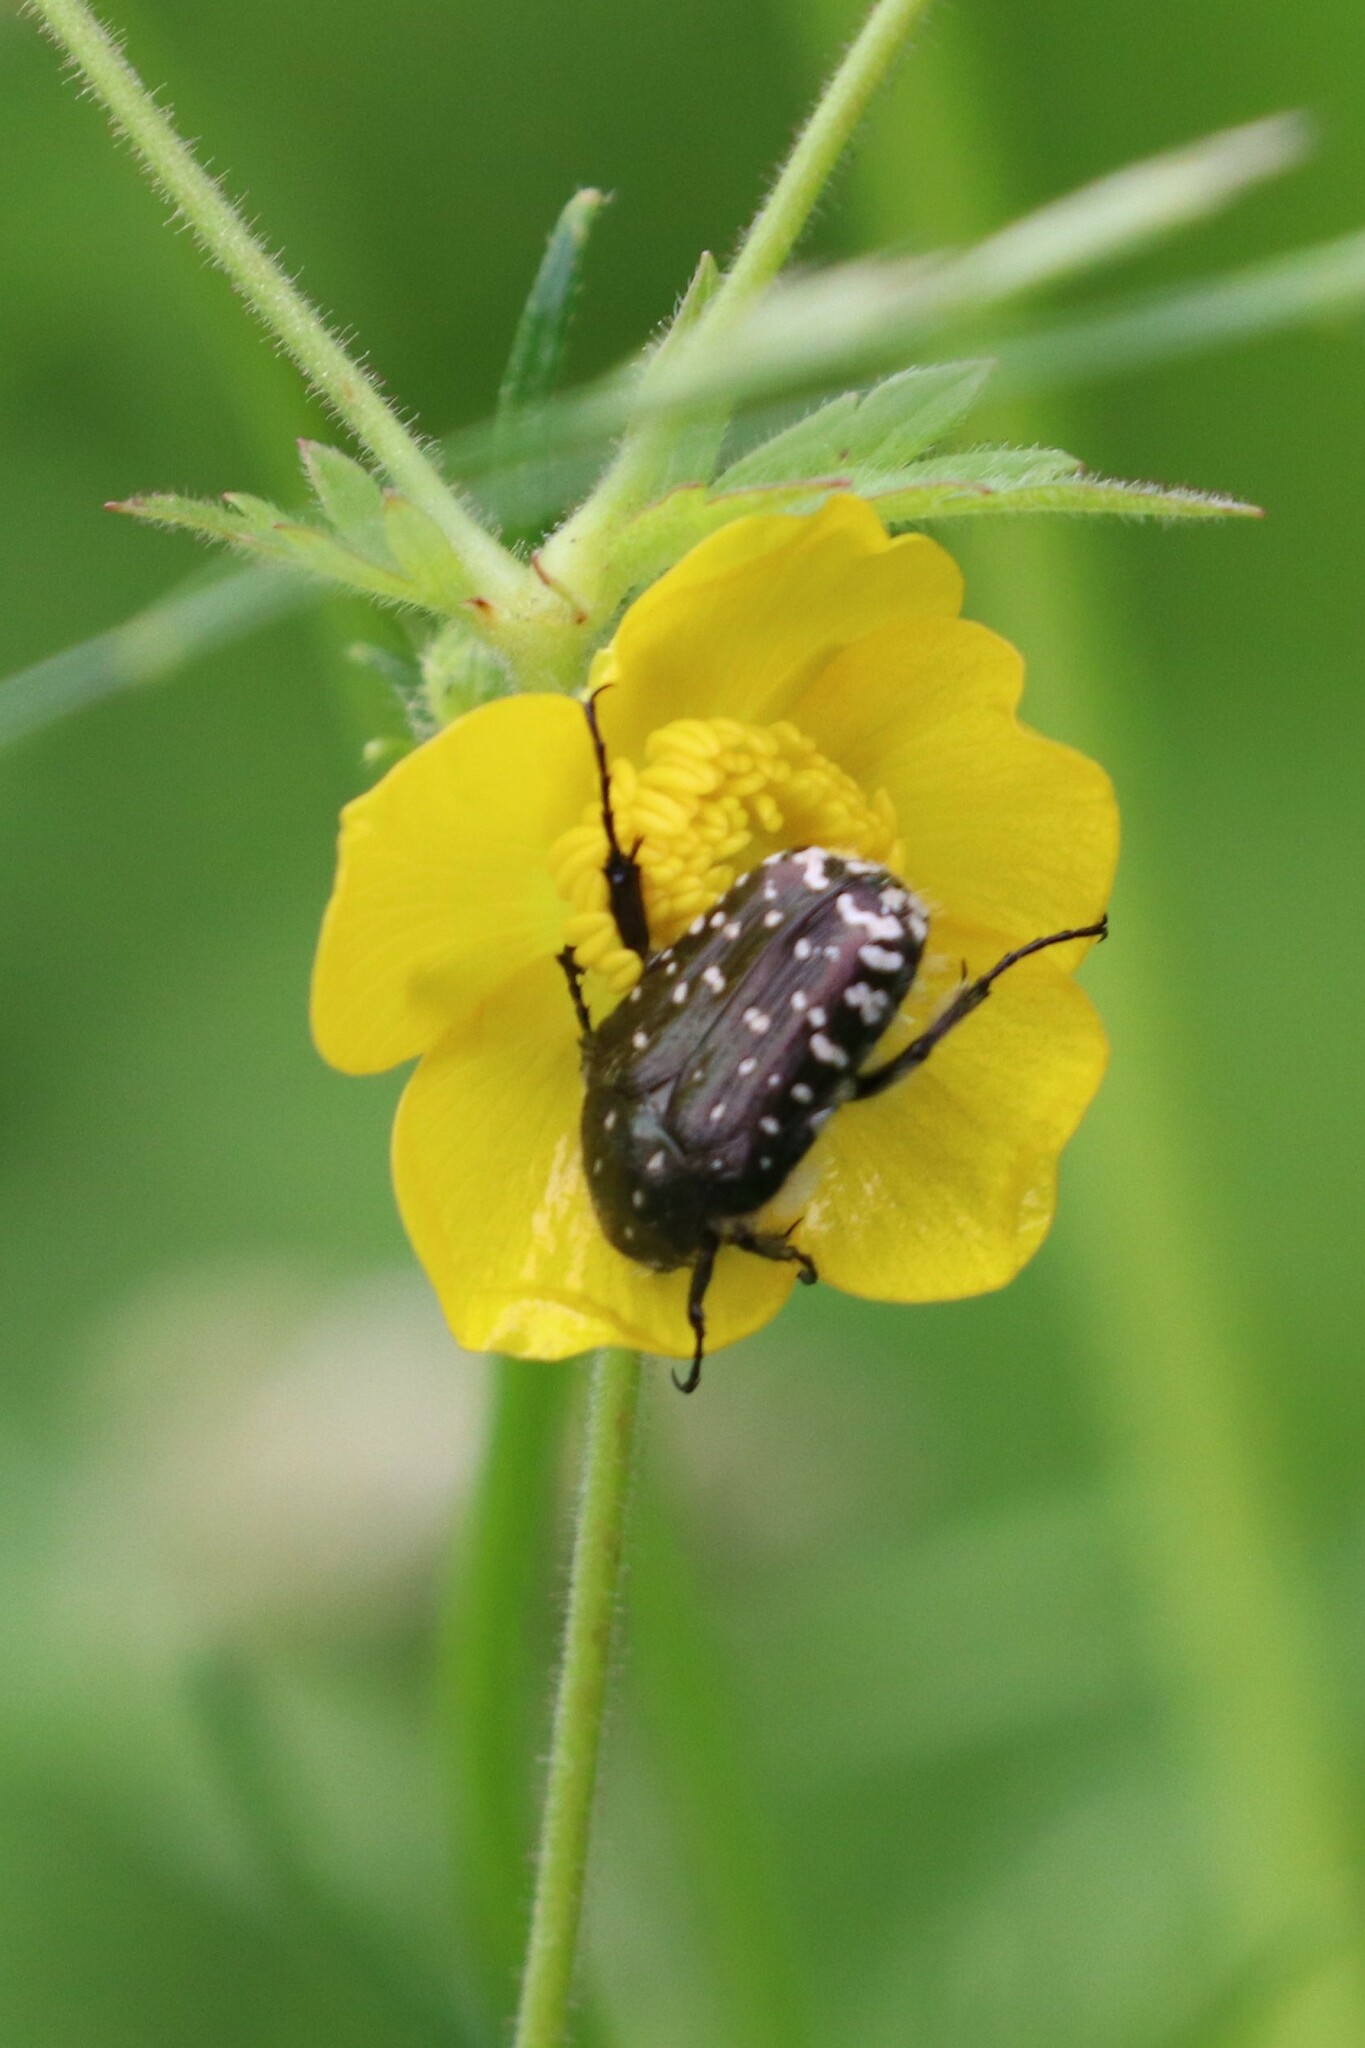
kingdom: Animalia
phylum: Arthropoda
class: Insecta
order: Coleoptera
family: Scarabaeidae
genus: Oxythyrea
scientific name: Oxythyrea funesta
